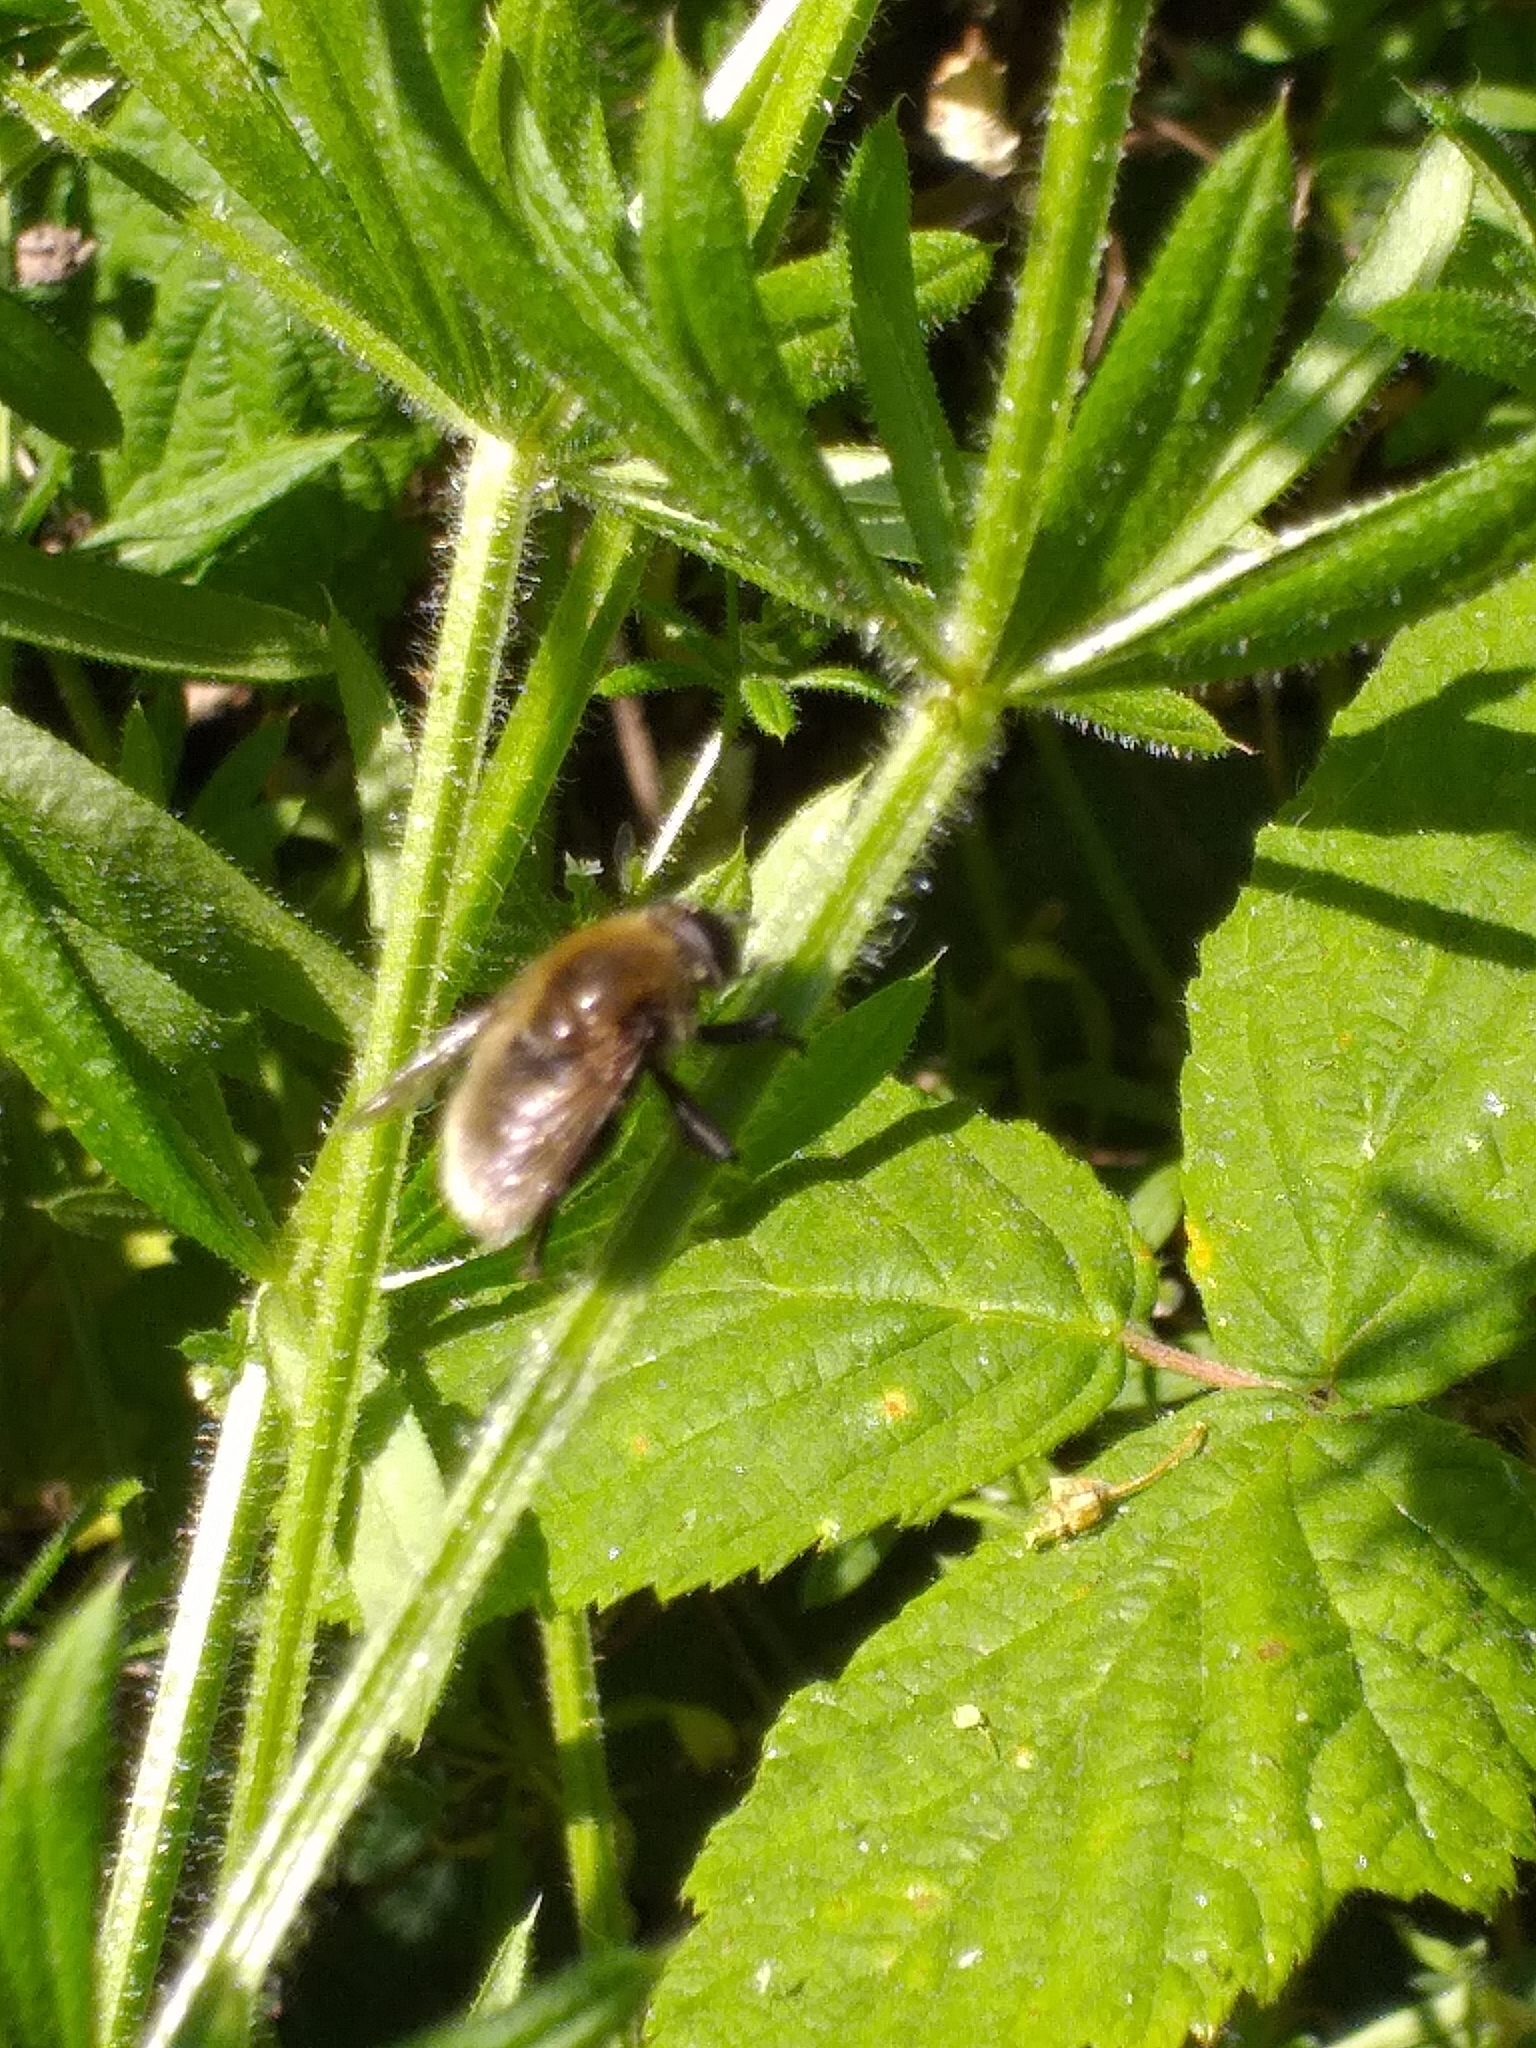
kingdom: Animalia
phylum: Arthropoda
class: Insecta
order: Diptera
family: Syrphidae
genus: Merodon
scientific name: Merodon equestris
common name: Greater bulb-fly
